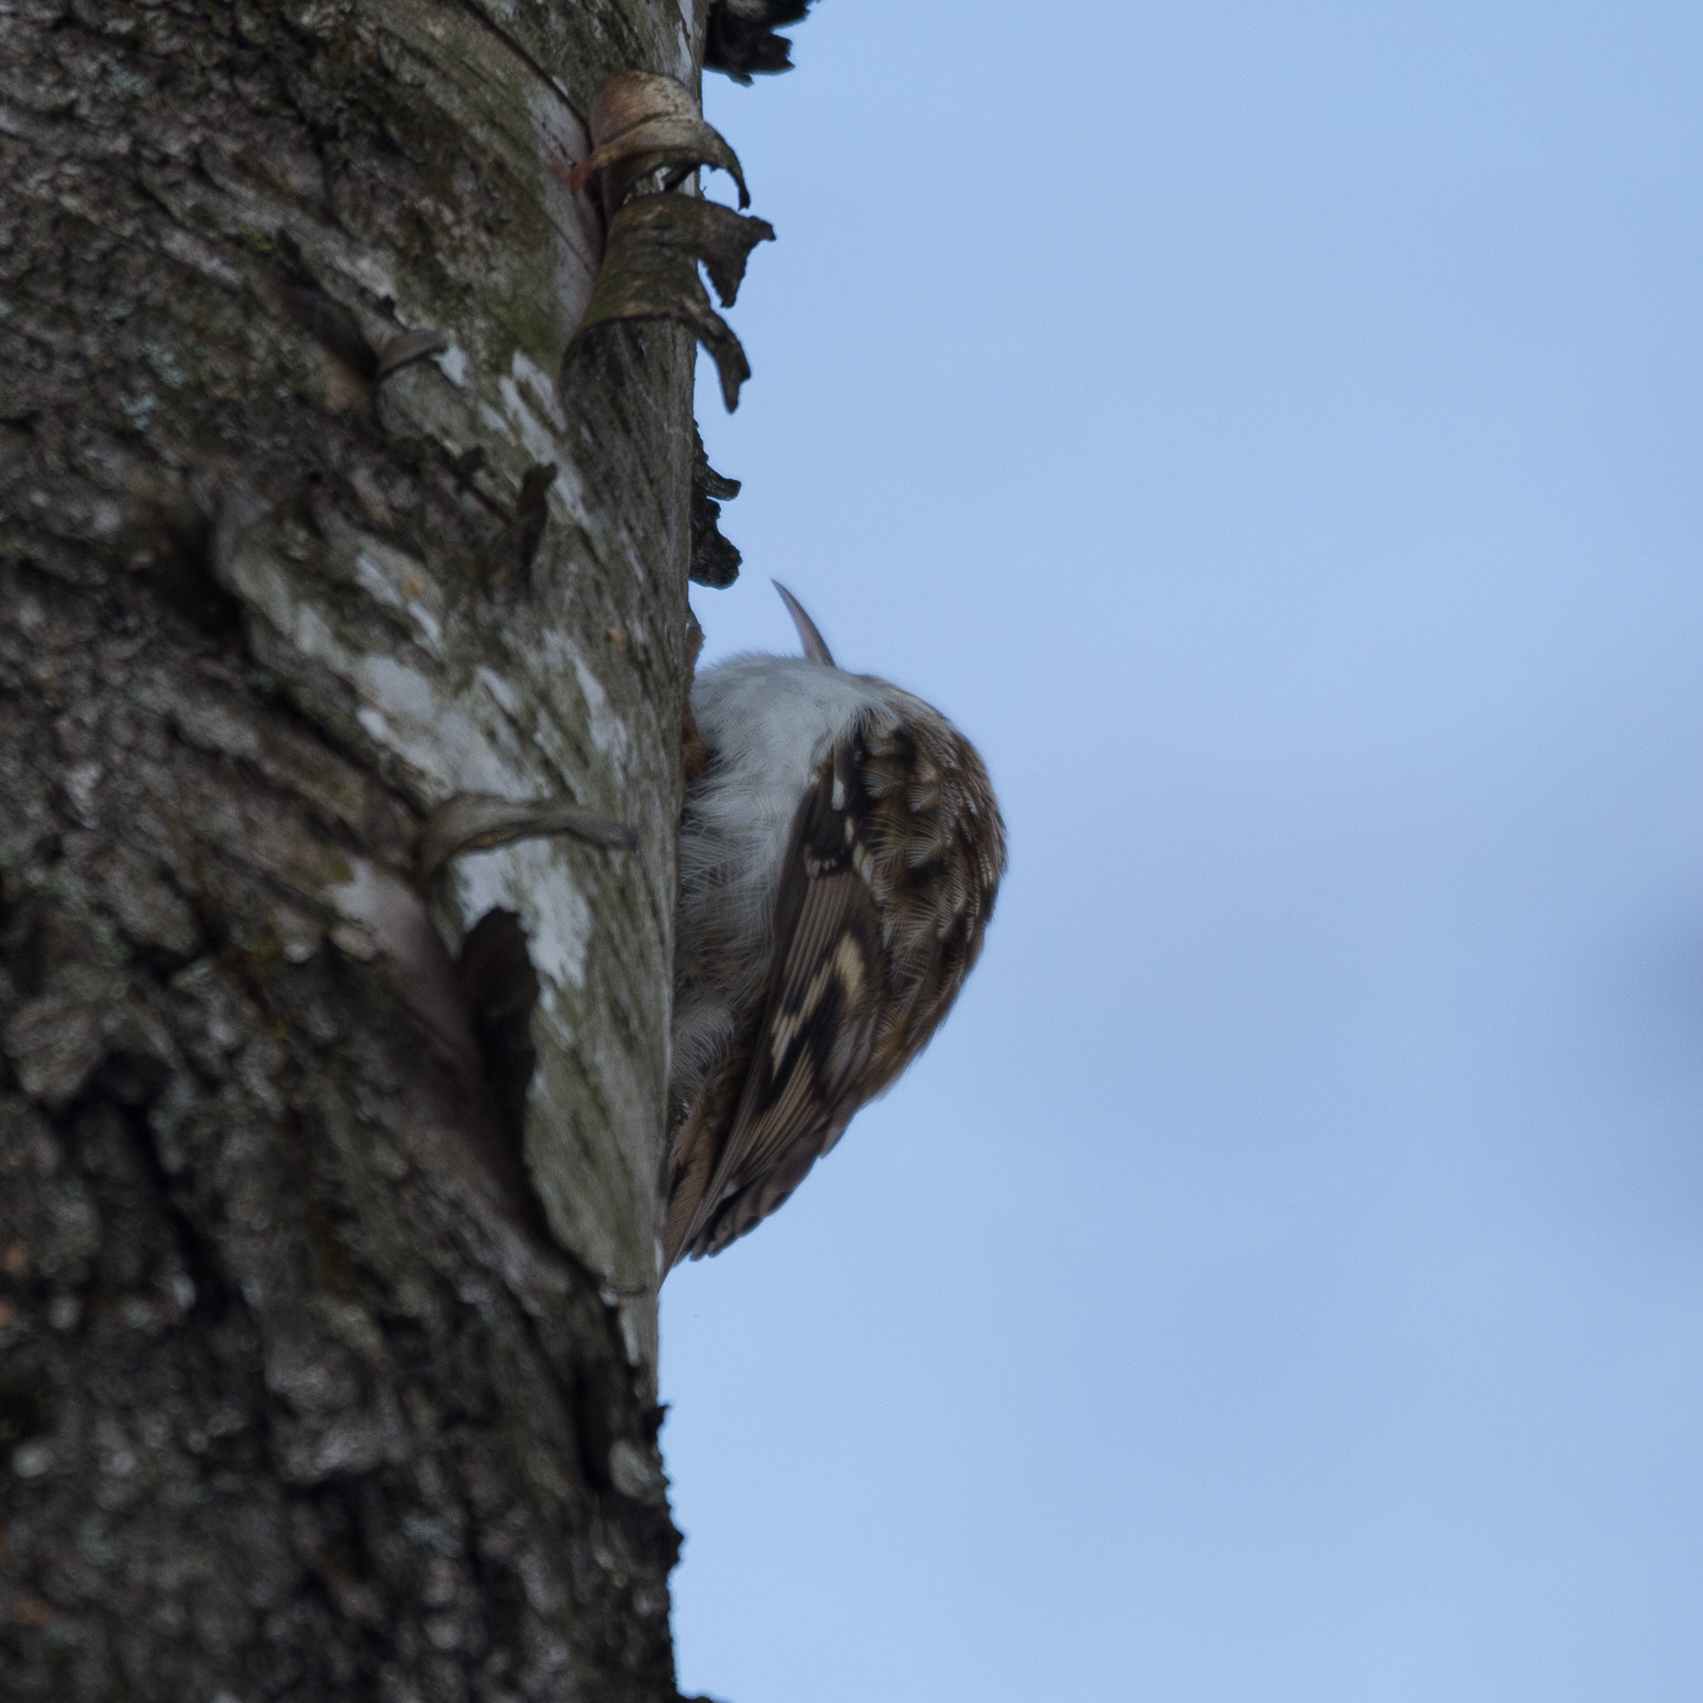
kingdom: Animalia
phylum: Chordata
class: Aves
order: Passeriformes
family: Certhiidae
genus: Certhia
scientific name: Certhia familiaris
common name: Eurasian treecreeper
